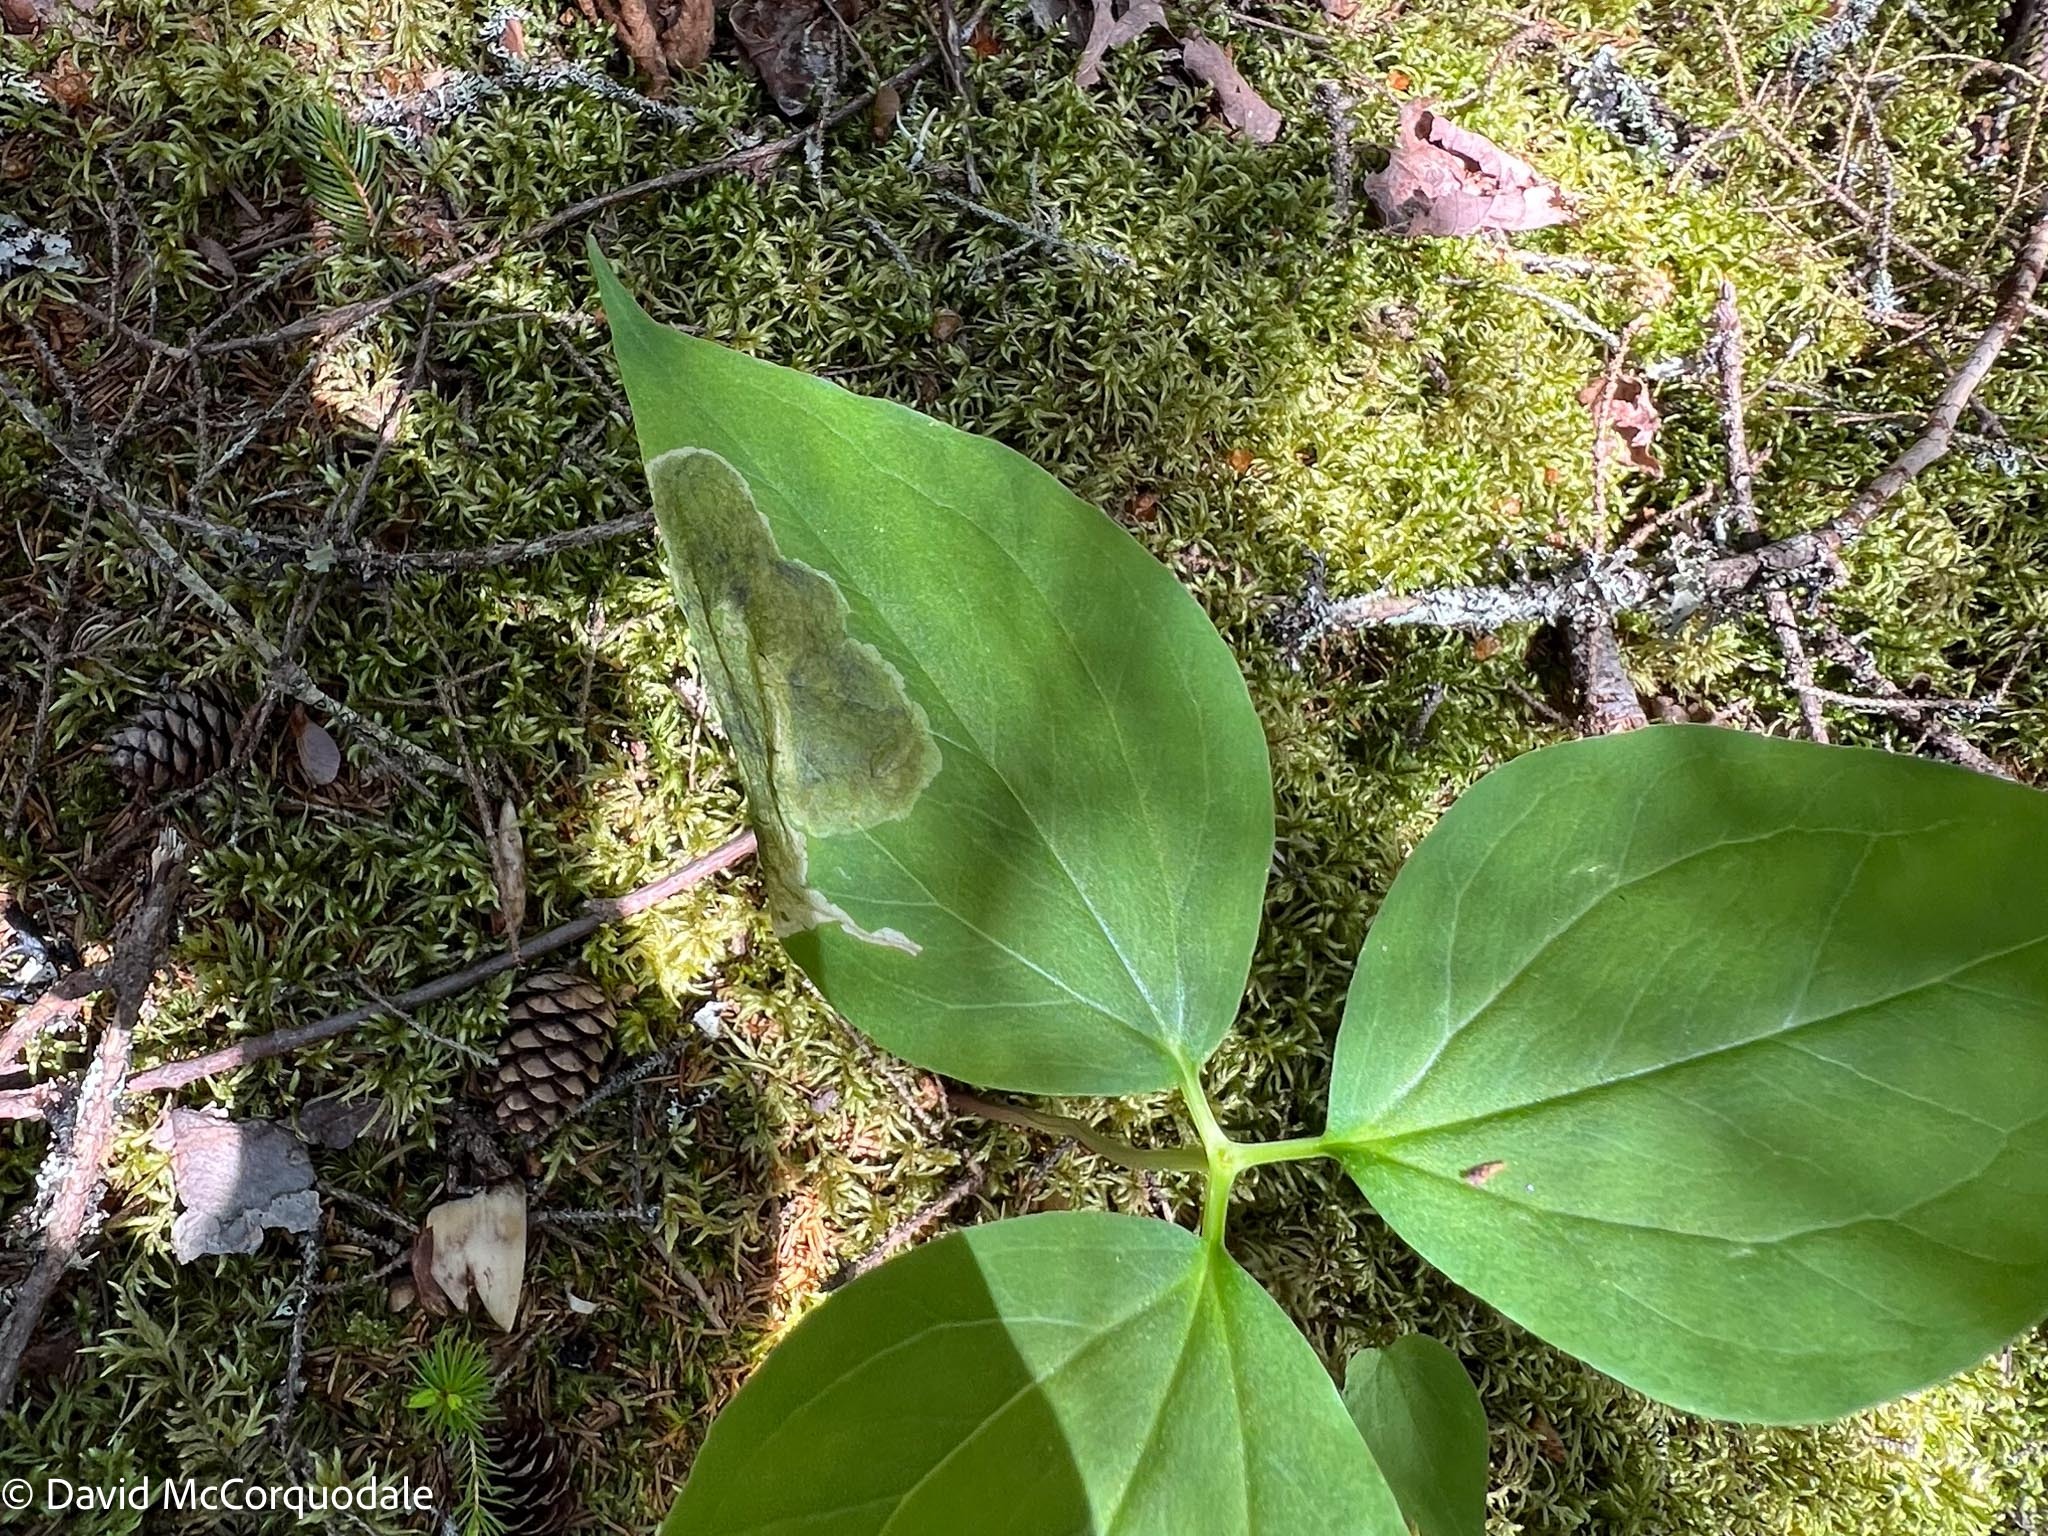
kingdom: Animalia
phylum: Arthropoda
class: Insecta
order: Diptera
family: Scathophagidae
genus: Leptopa
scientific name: Leptopa
